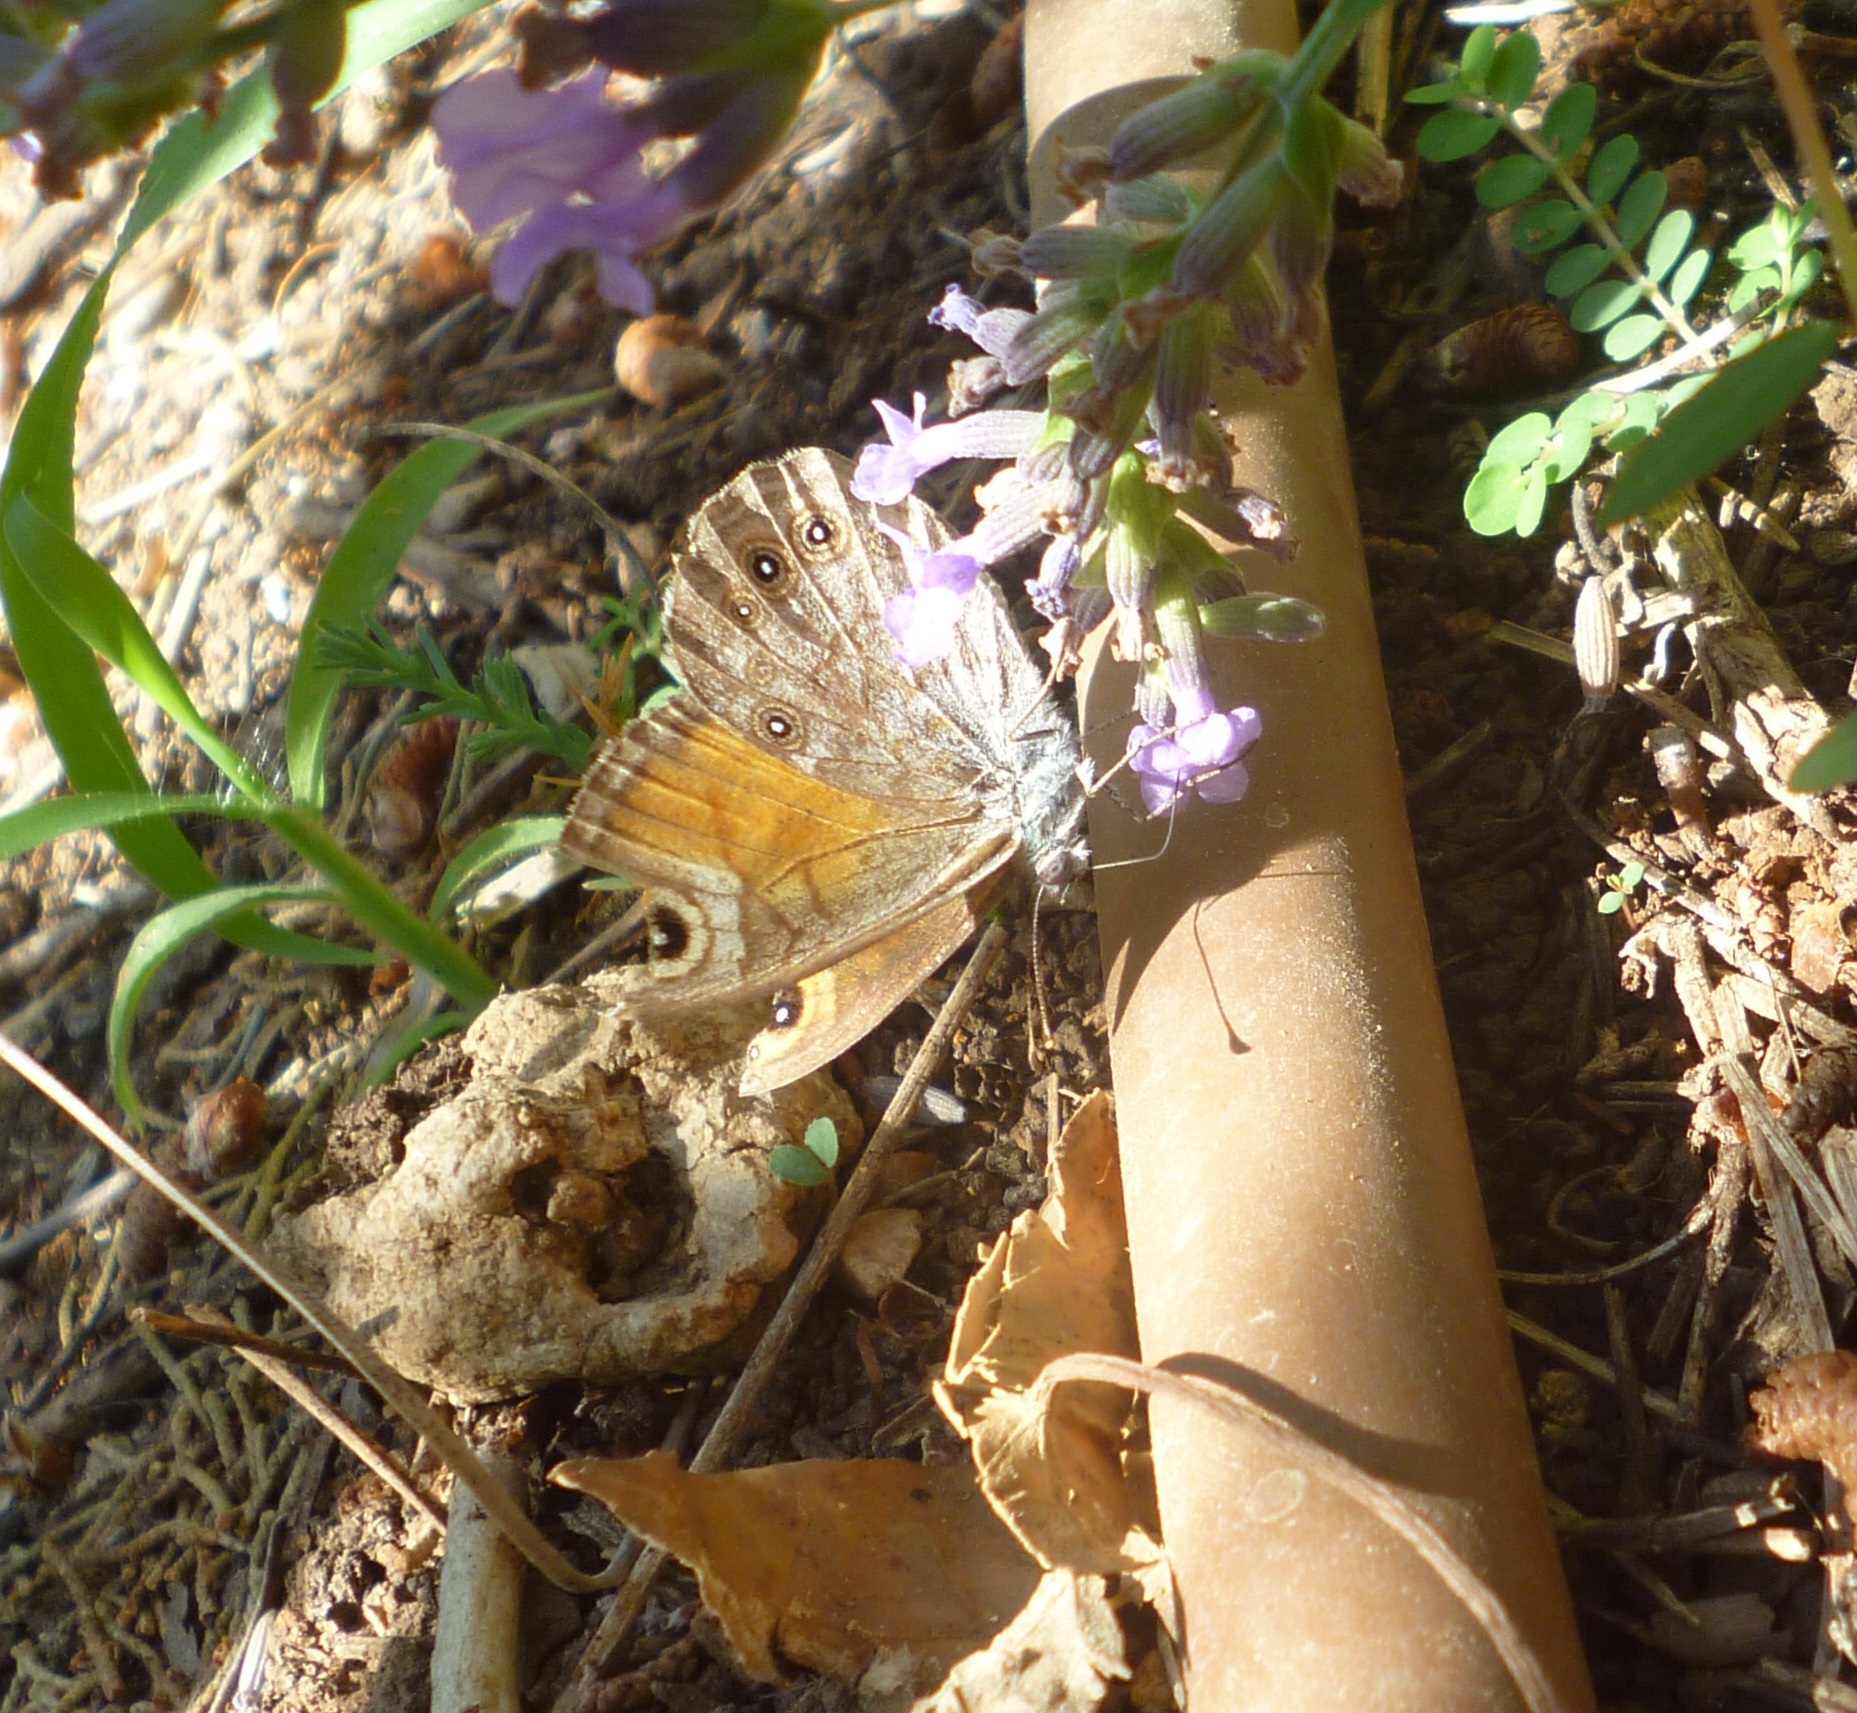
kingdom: Animalia
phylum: Arthropoda
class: Insecta
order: Lepidoptera
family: Nymphalidae
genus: Pararge
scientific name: Pararge Lasiommata maera
